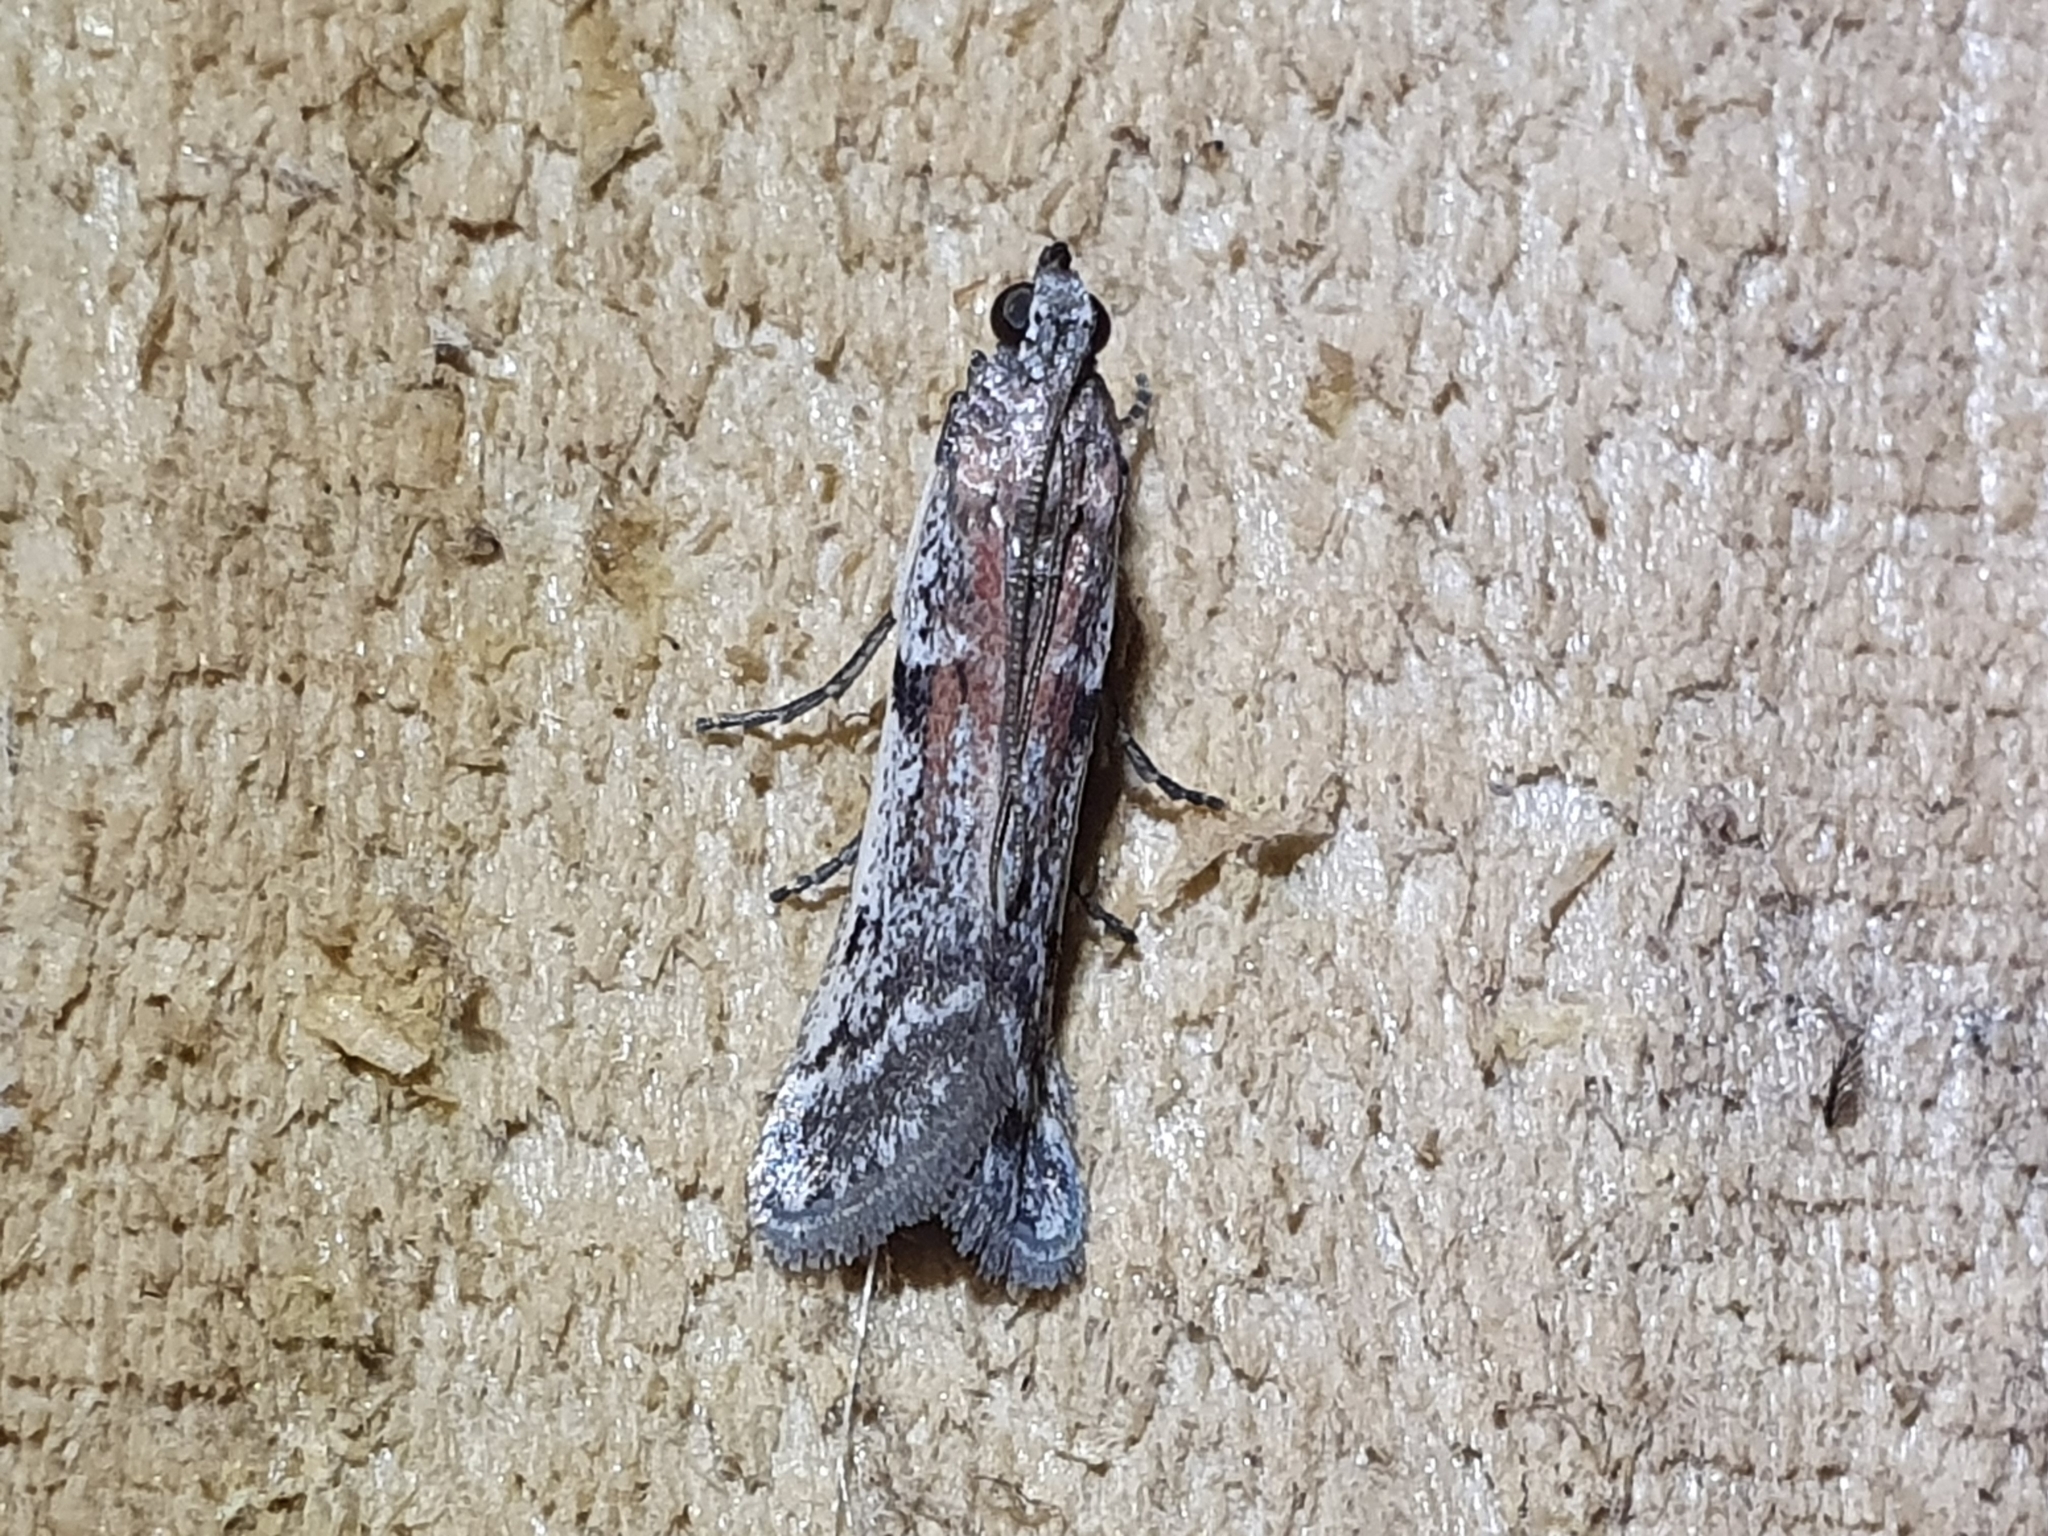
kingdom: Animalia
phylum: Arthropoda
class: Insecta
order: Lepidoptera
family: Pyralidae
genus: Patagoniodes
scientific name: Patagoniodes farinaria
